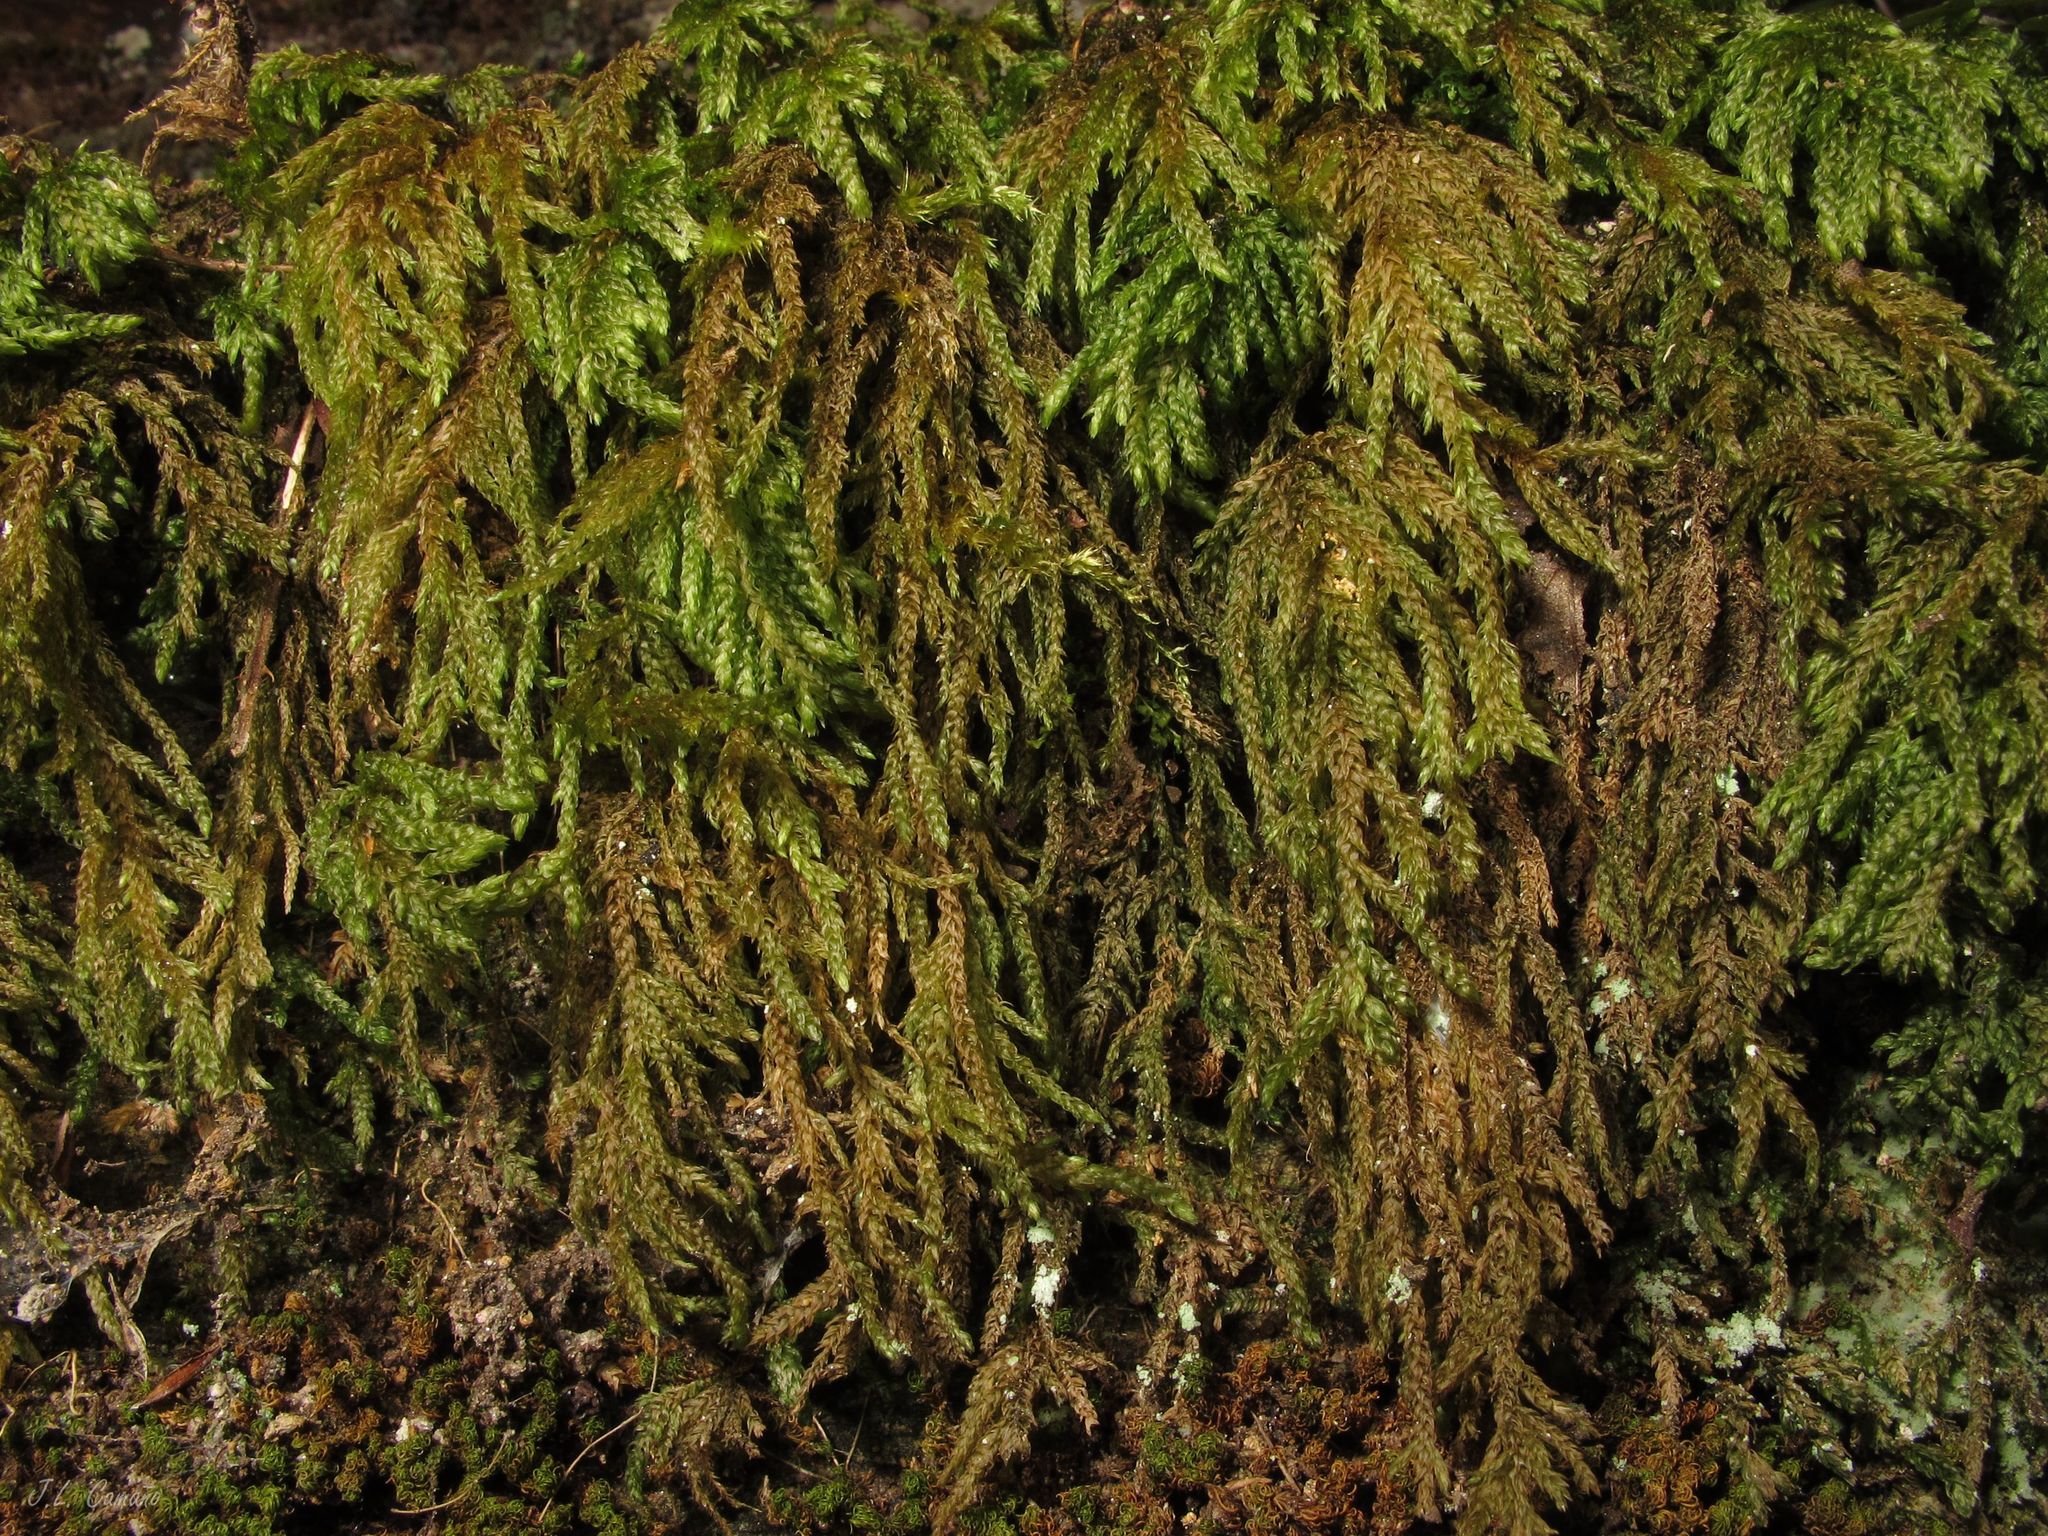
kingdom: Plantae
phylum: Bryophyta
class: Bryopsida
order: Hypnales
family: Neckeraceae
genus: Thamnobryum
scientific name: Thamnobryum alopecurum
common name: Fox-tail feather-moss
